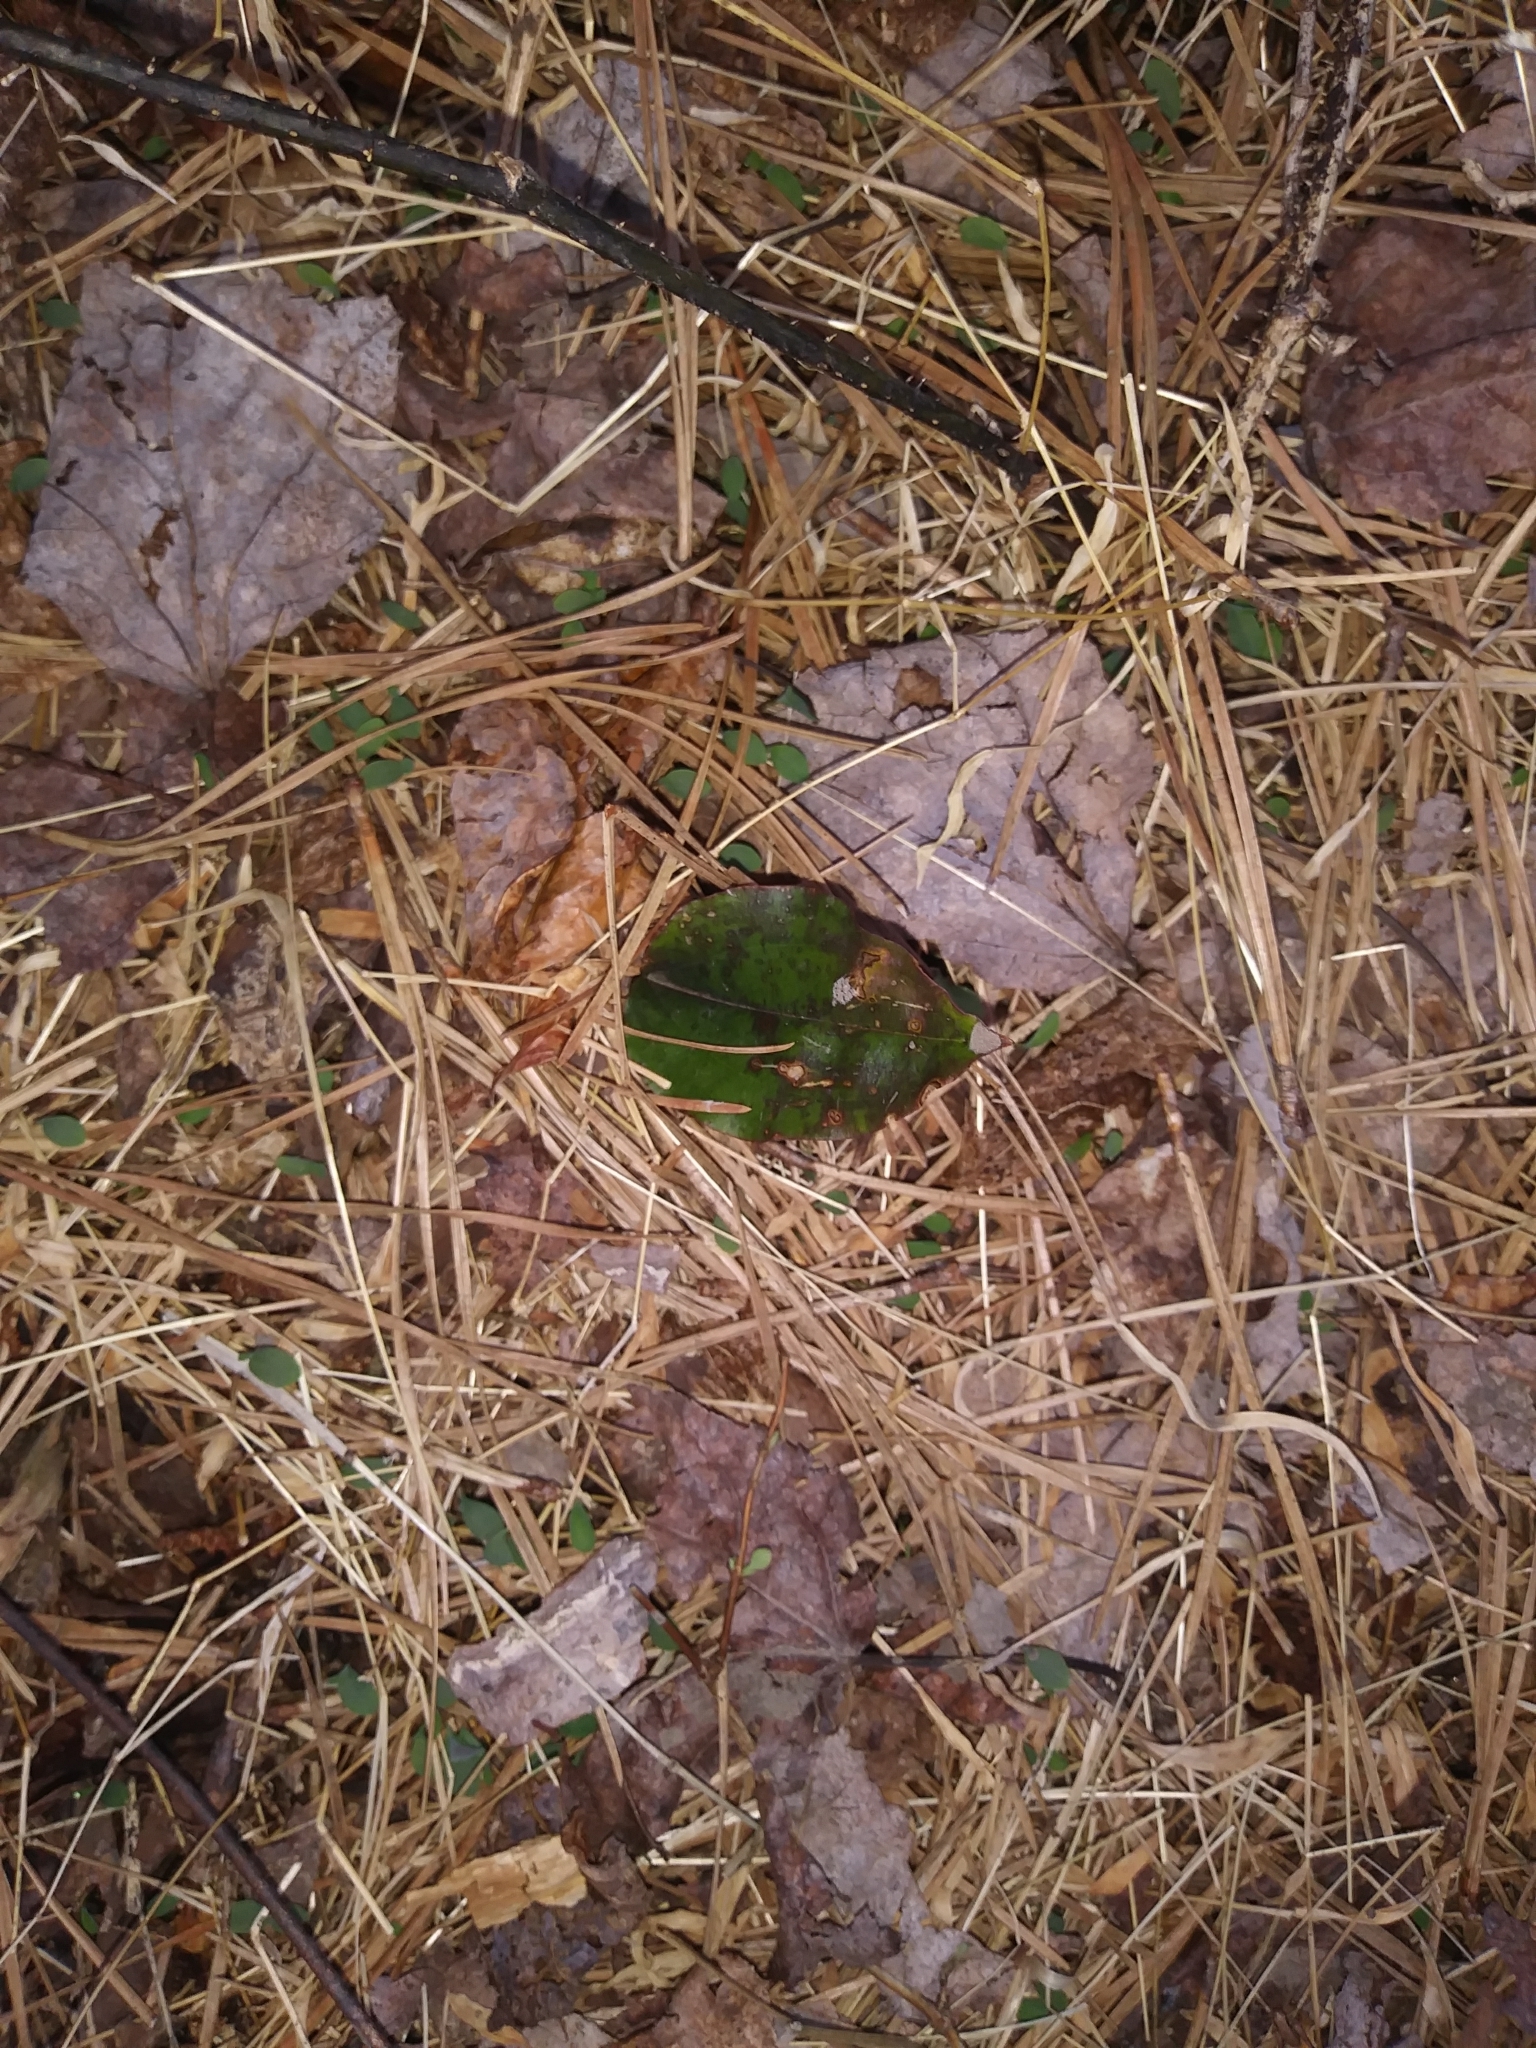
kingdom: Plantae
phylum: Tracheophyta
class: Liliopsida
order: Asparagales
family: Orchidaceae
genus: Tipularia
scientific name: Tipularia discolor
